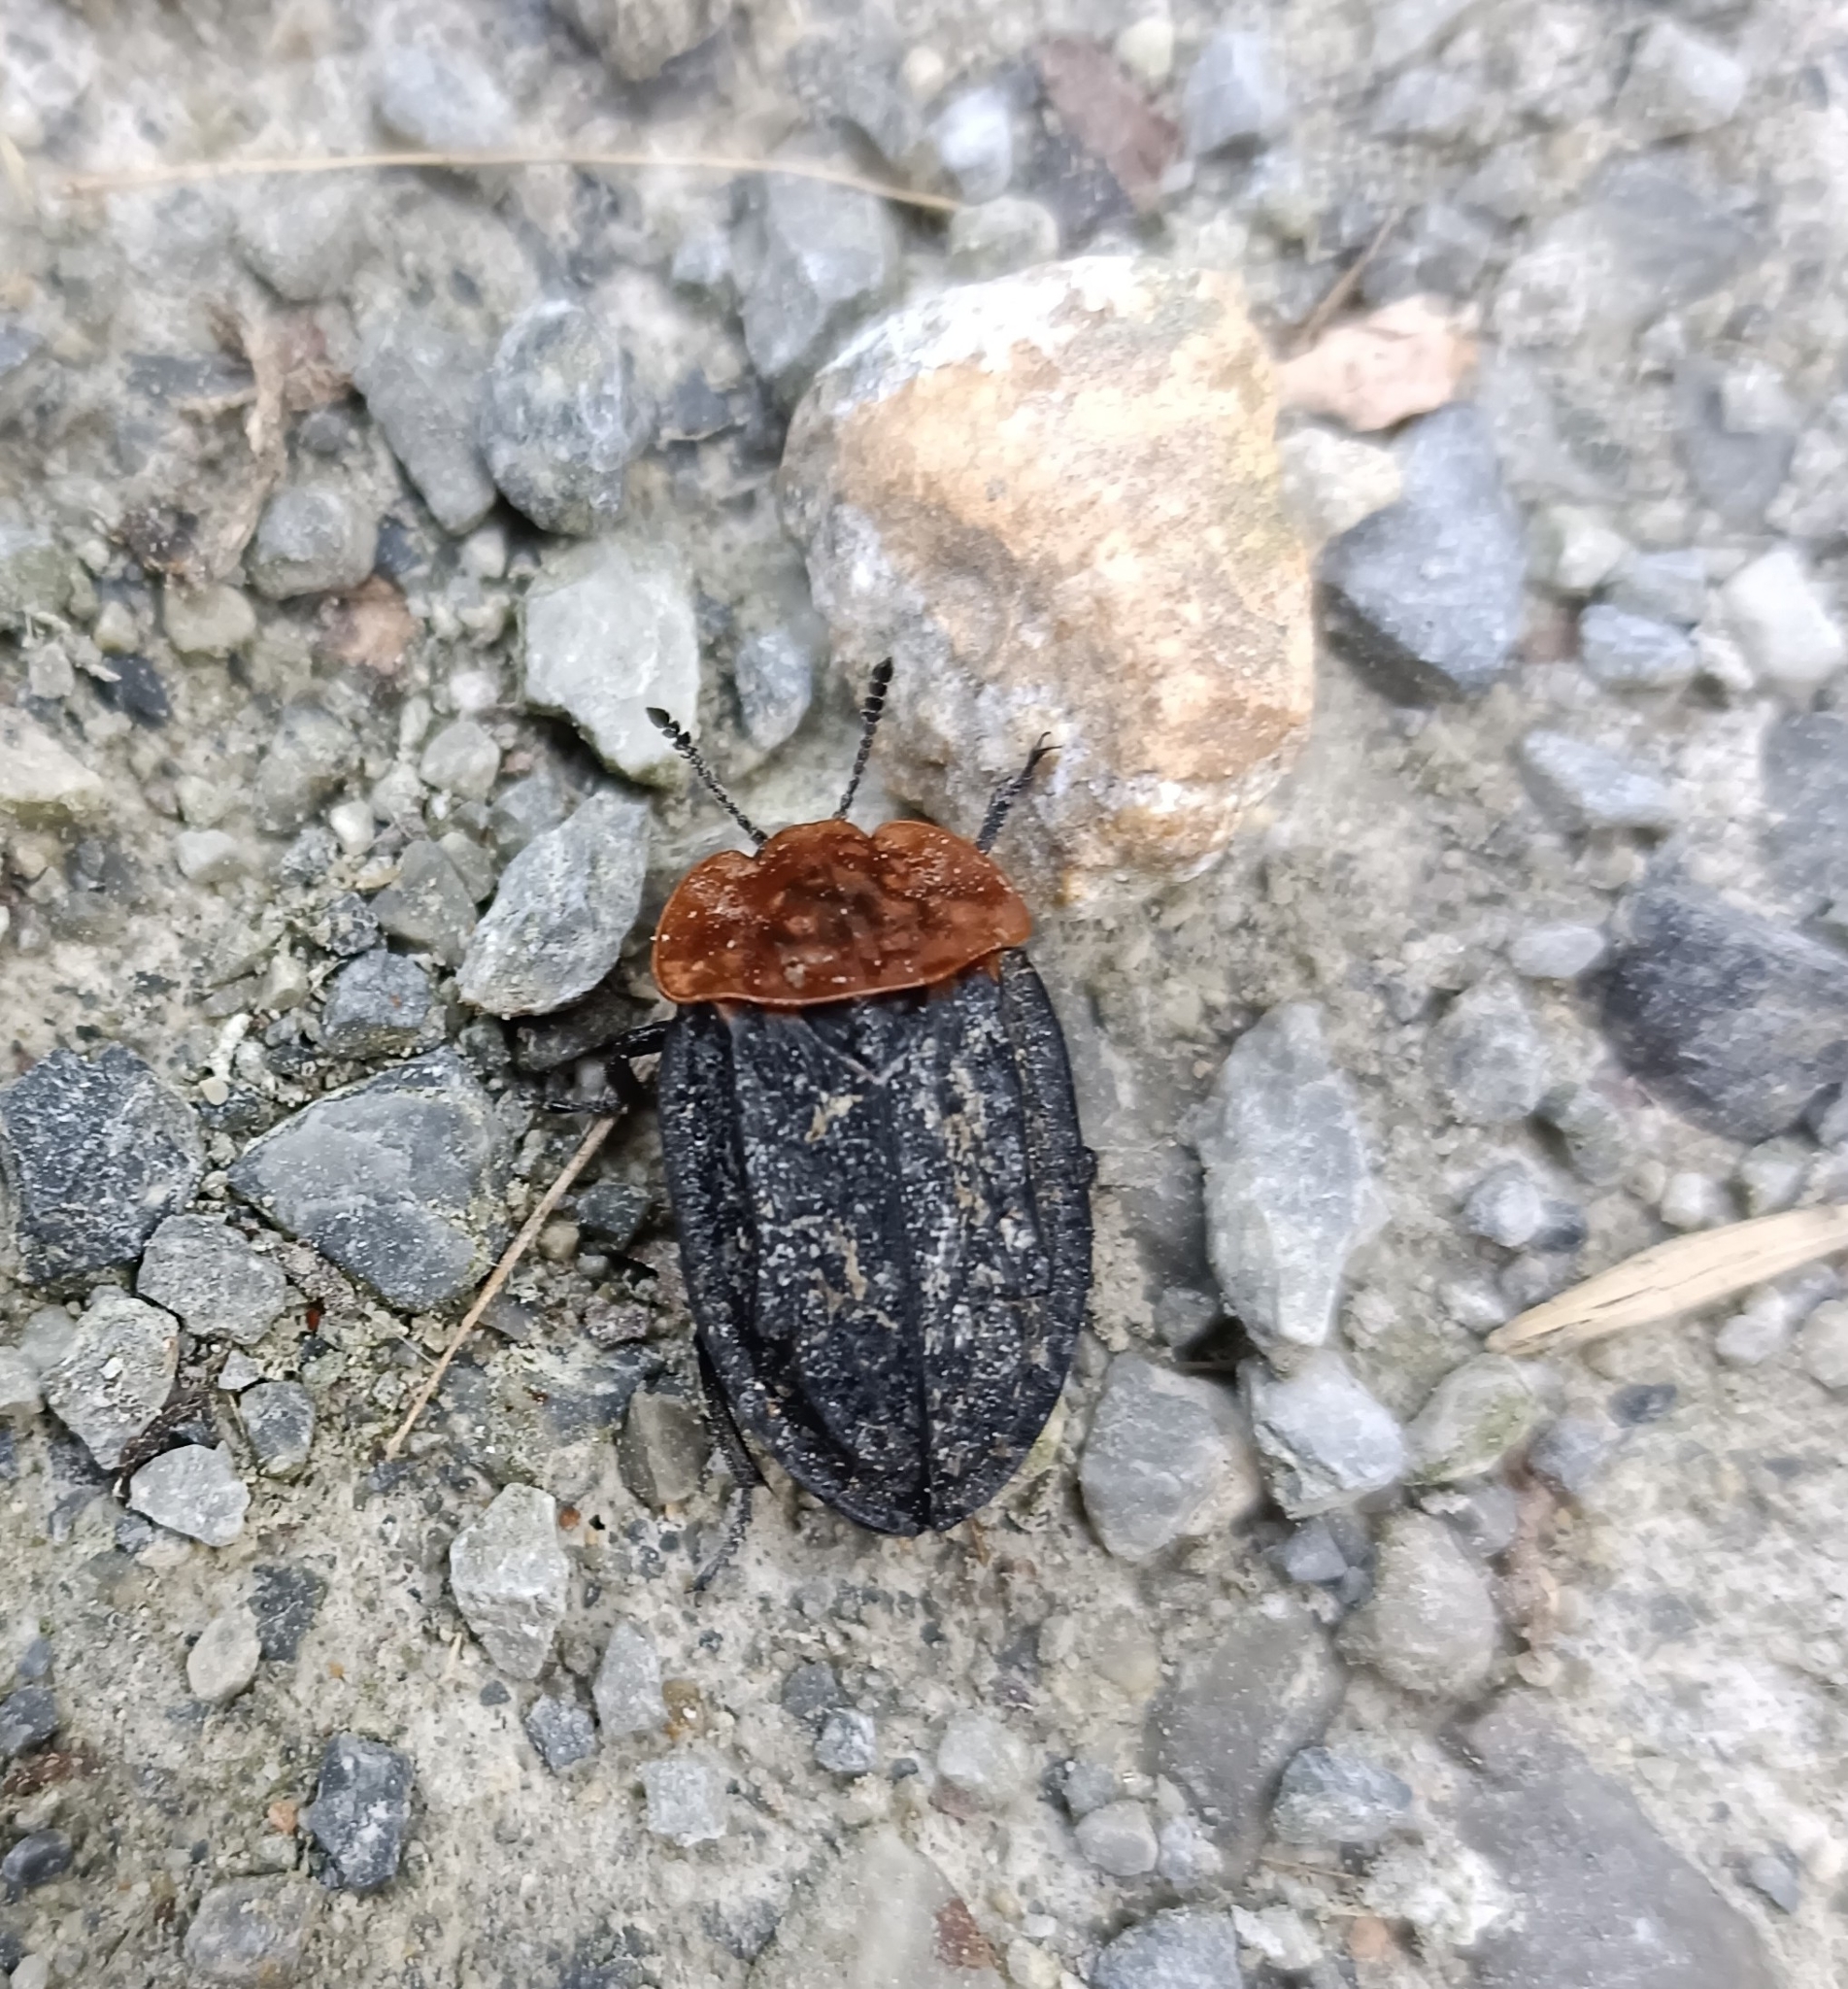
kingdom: Animalia
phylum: Arthropoda
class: Insecta
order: Coleoptera
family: Staphylinidae
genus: Oiceoptoma
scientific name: Oiceoptoma thoracicum
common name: Red-breasted carrion beetle
